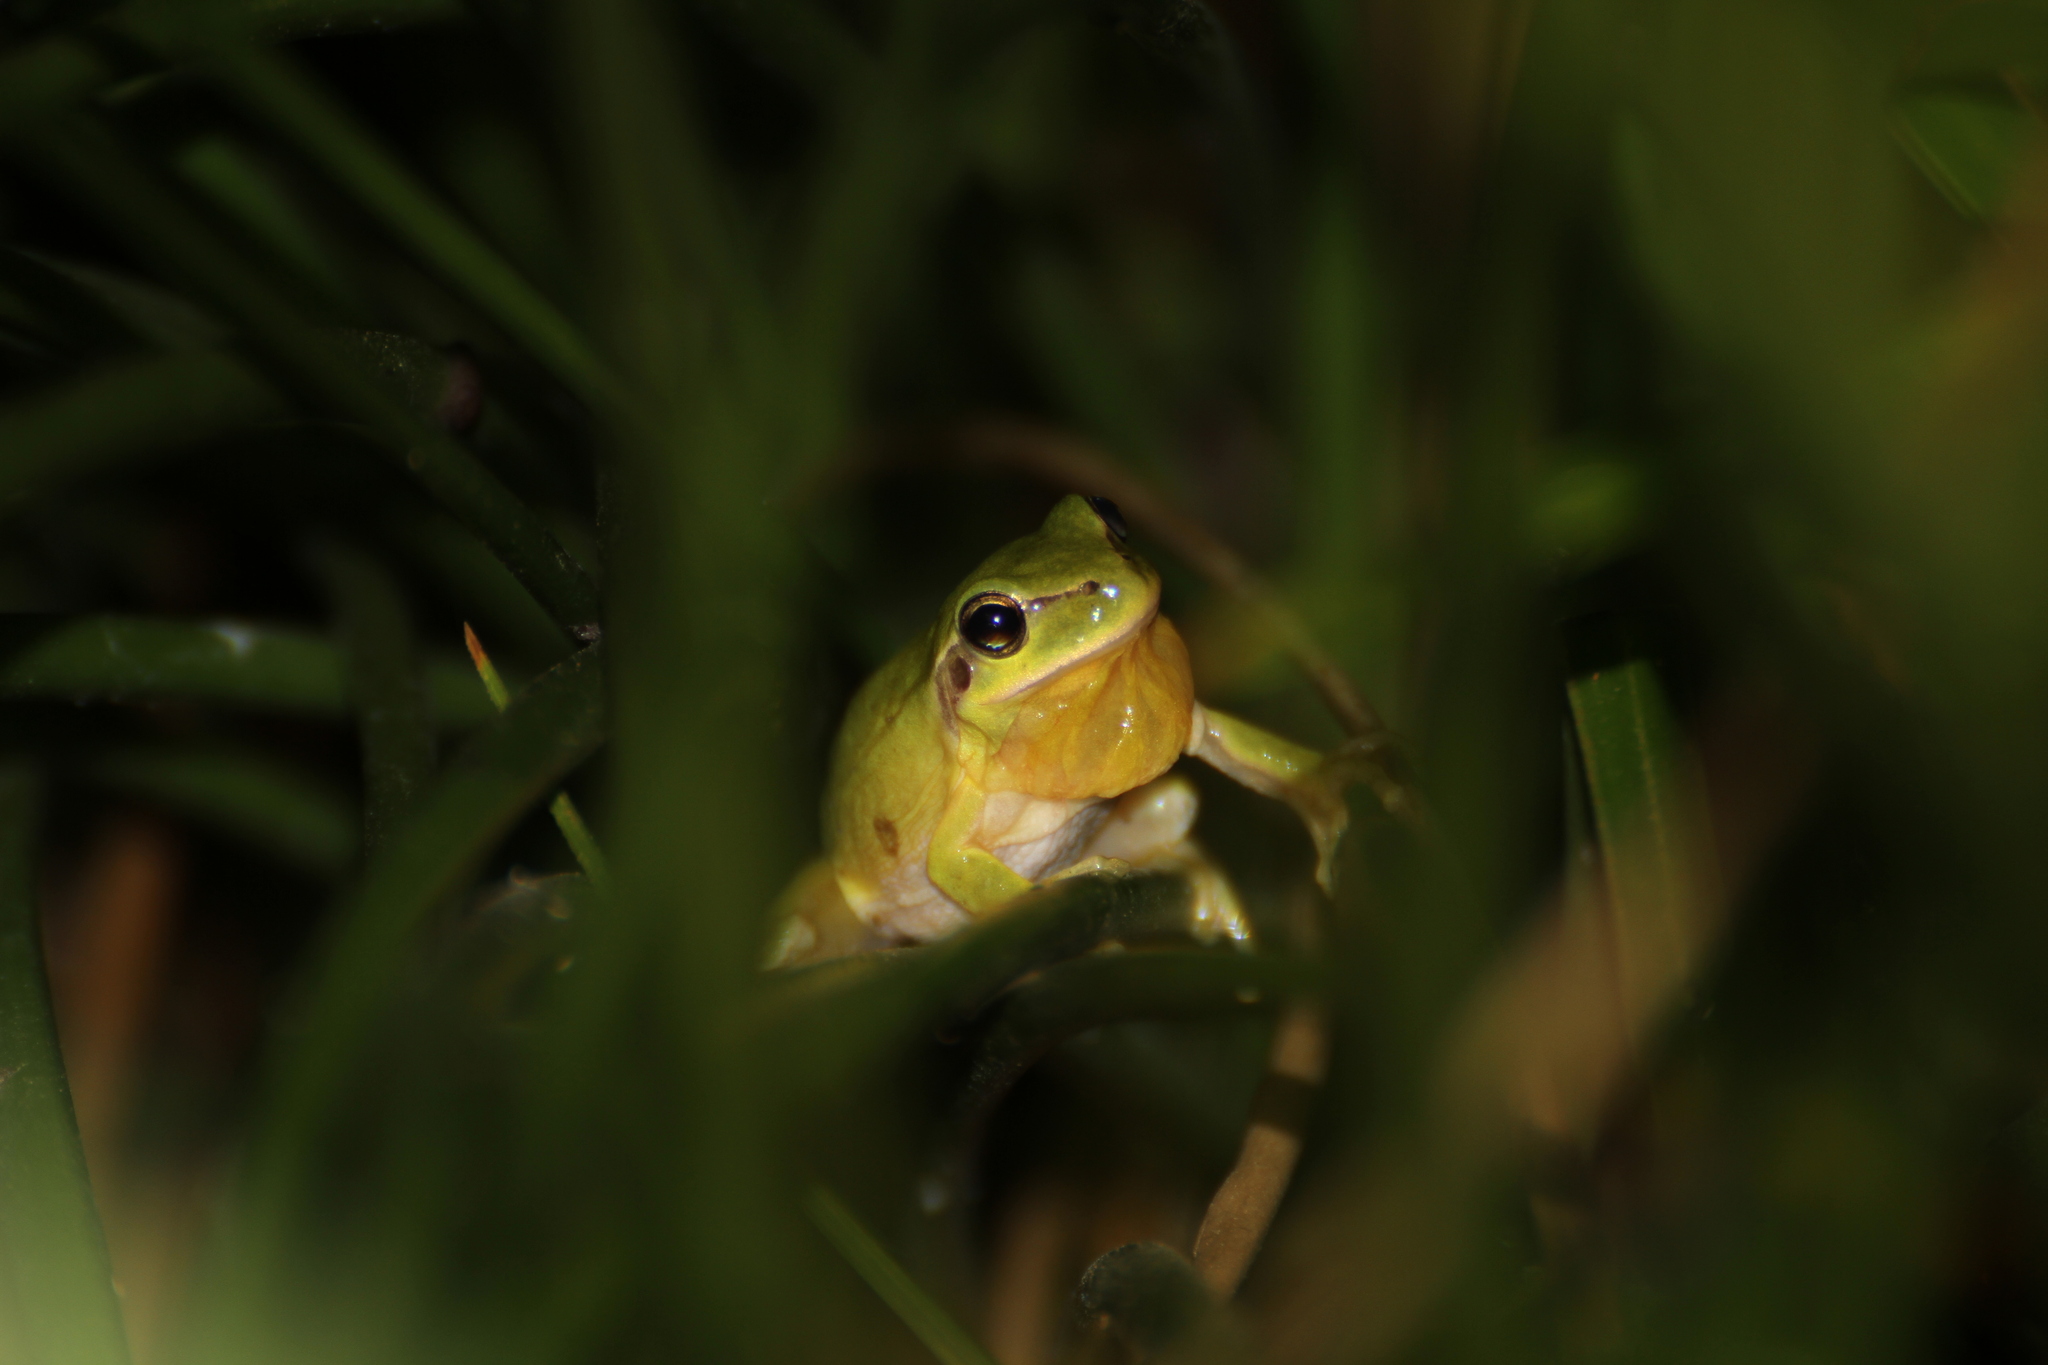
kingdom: Animalia
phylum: Chordata
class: Amphibia
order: Anura
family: Hylidae
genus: Hyla
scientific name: Hyla meridionalis
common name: Stripeless tree frog
